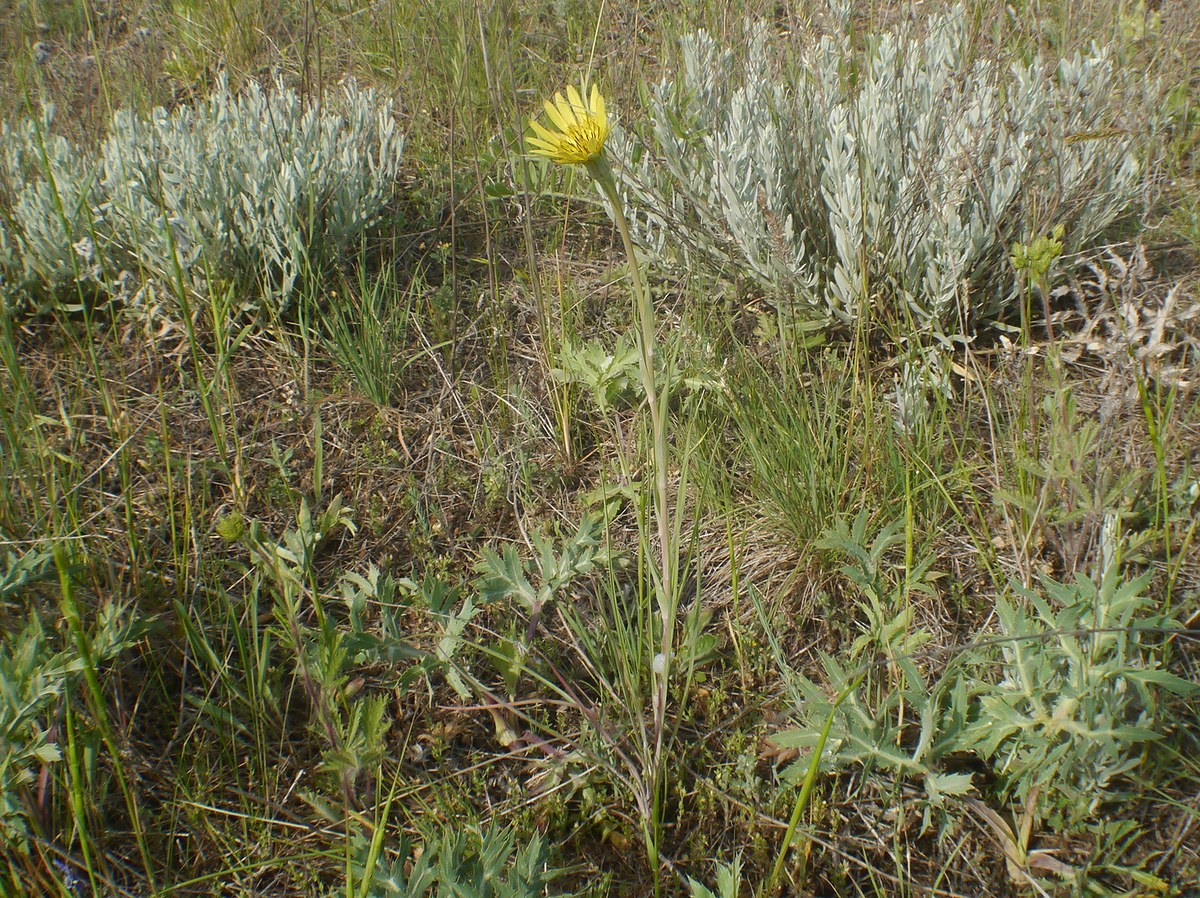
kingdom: Plantae
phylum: Tracheophyta
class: Magnoliopsida
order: Asterales
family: Asteraceae
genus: Tragopogon
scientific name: Tragopogon dubius
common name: Yellow salsify
